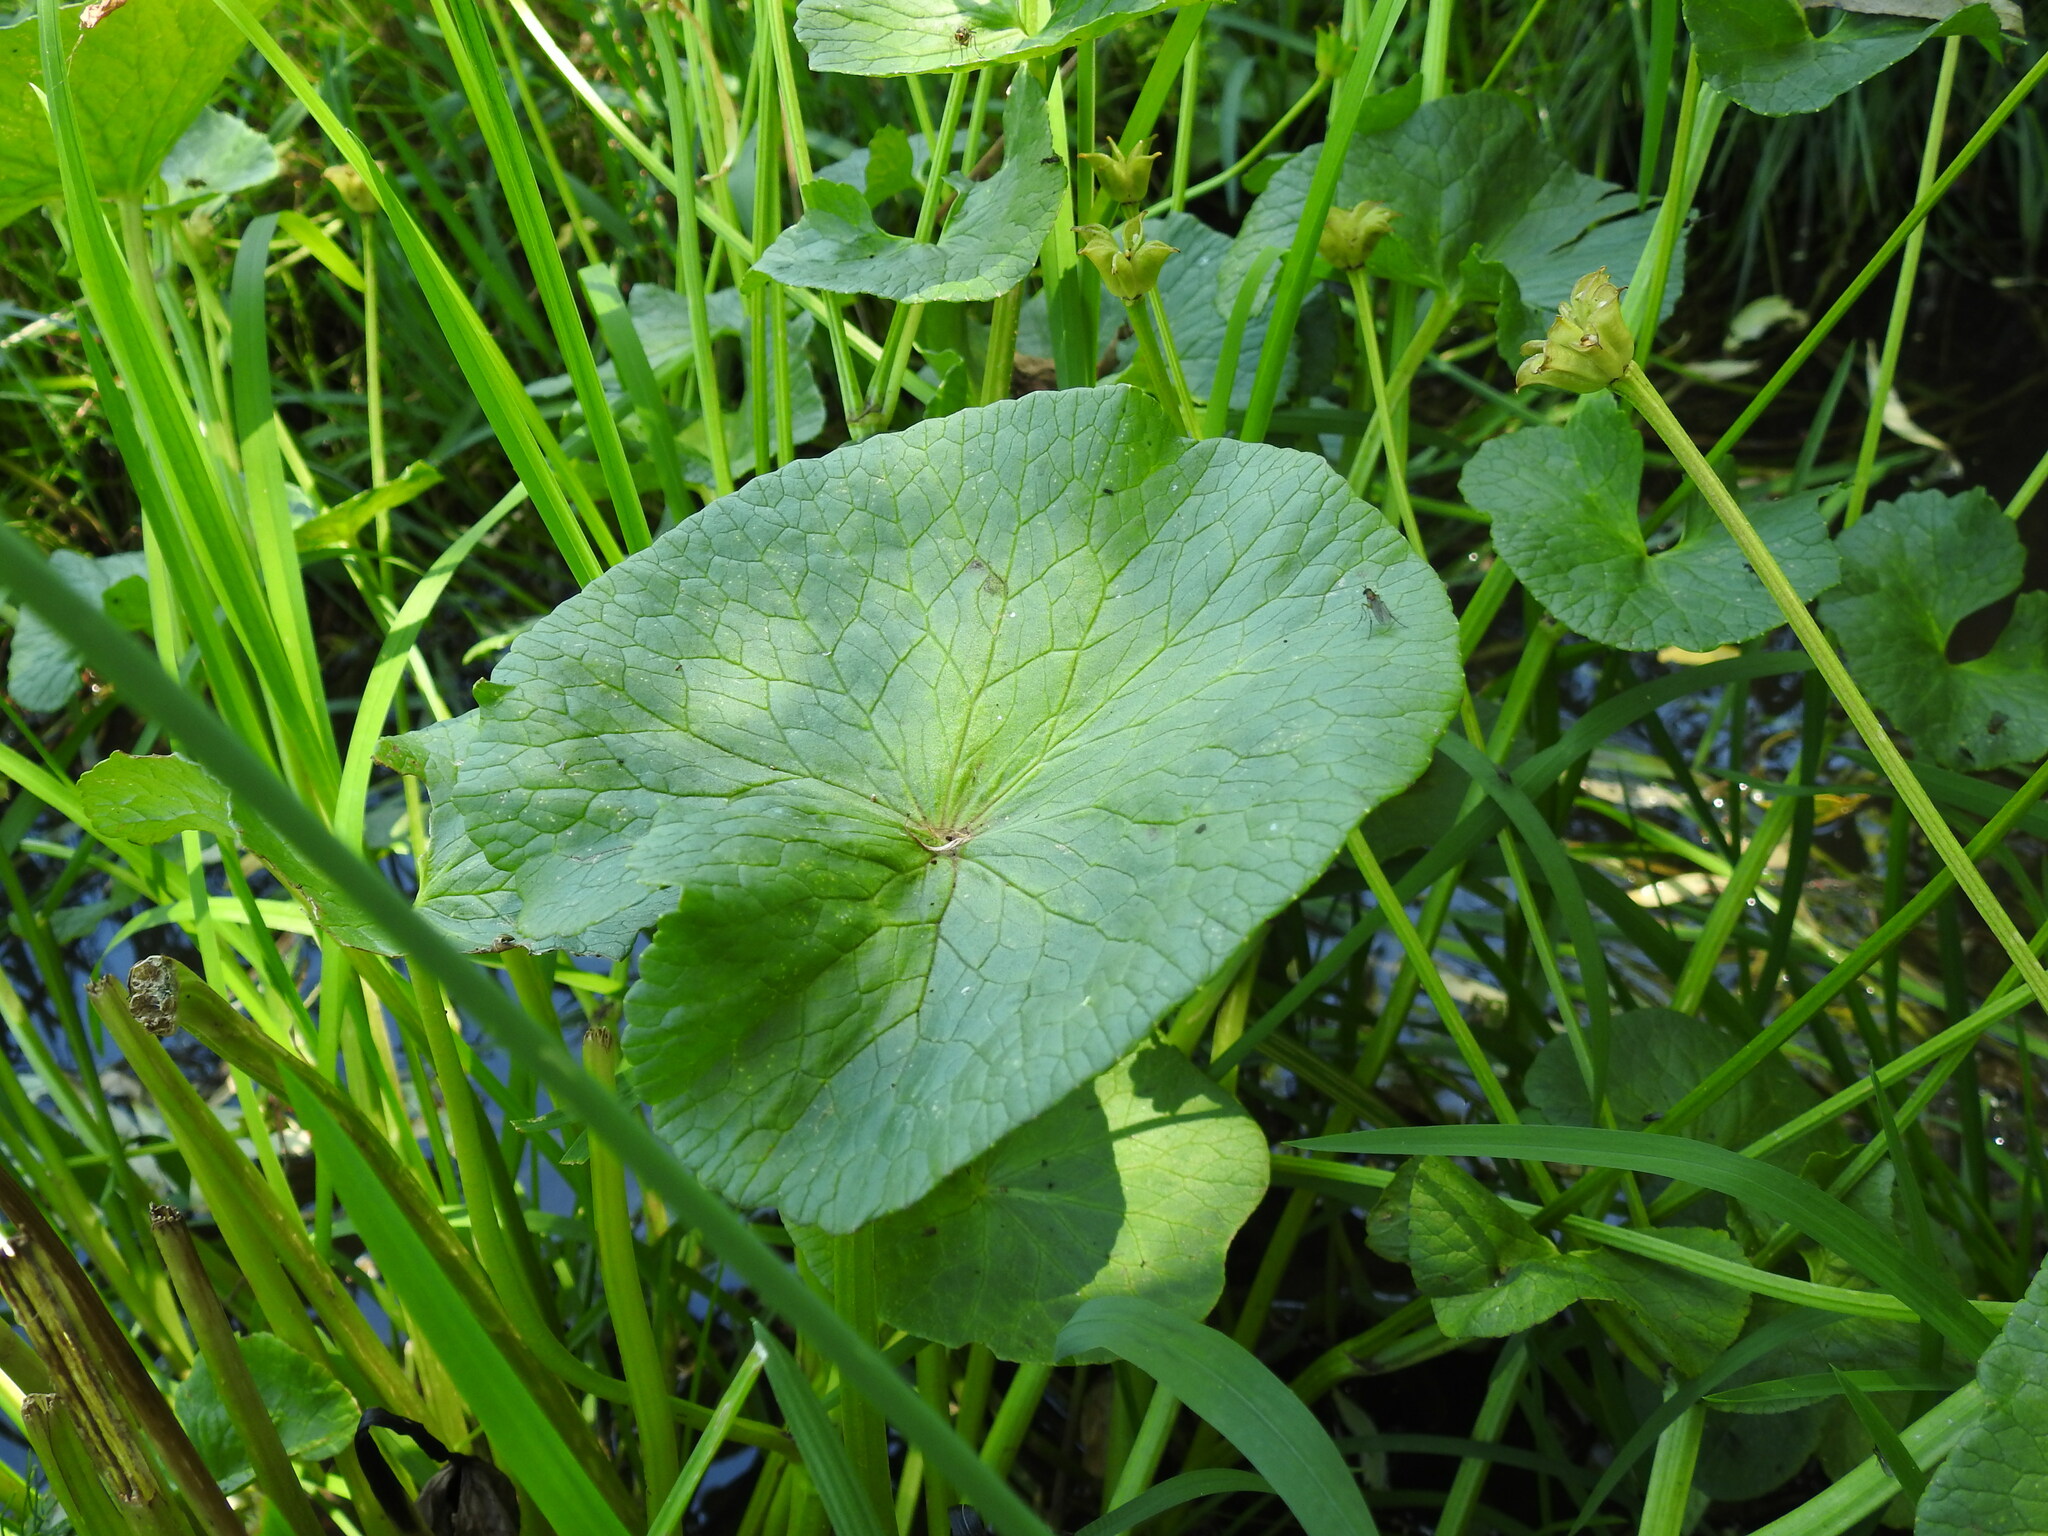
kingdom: Plantae
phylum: Tracheophyta
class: Magnoliopsida
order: Ranunculales
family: Ranunculaceae
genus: Caltha
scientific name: Caltha palustris
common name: Marsh marigold
